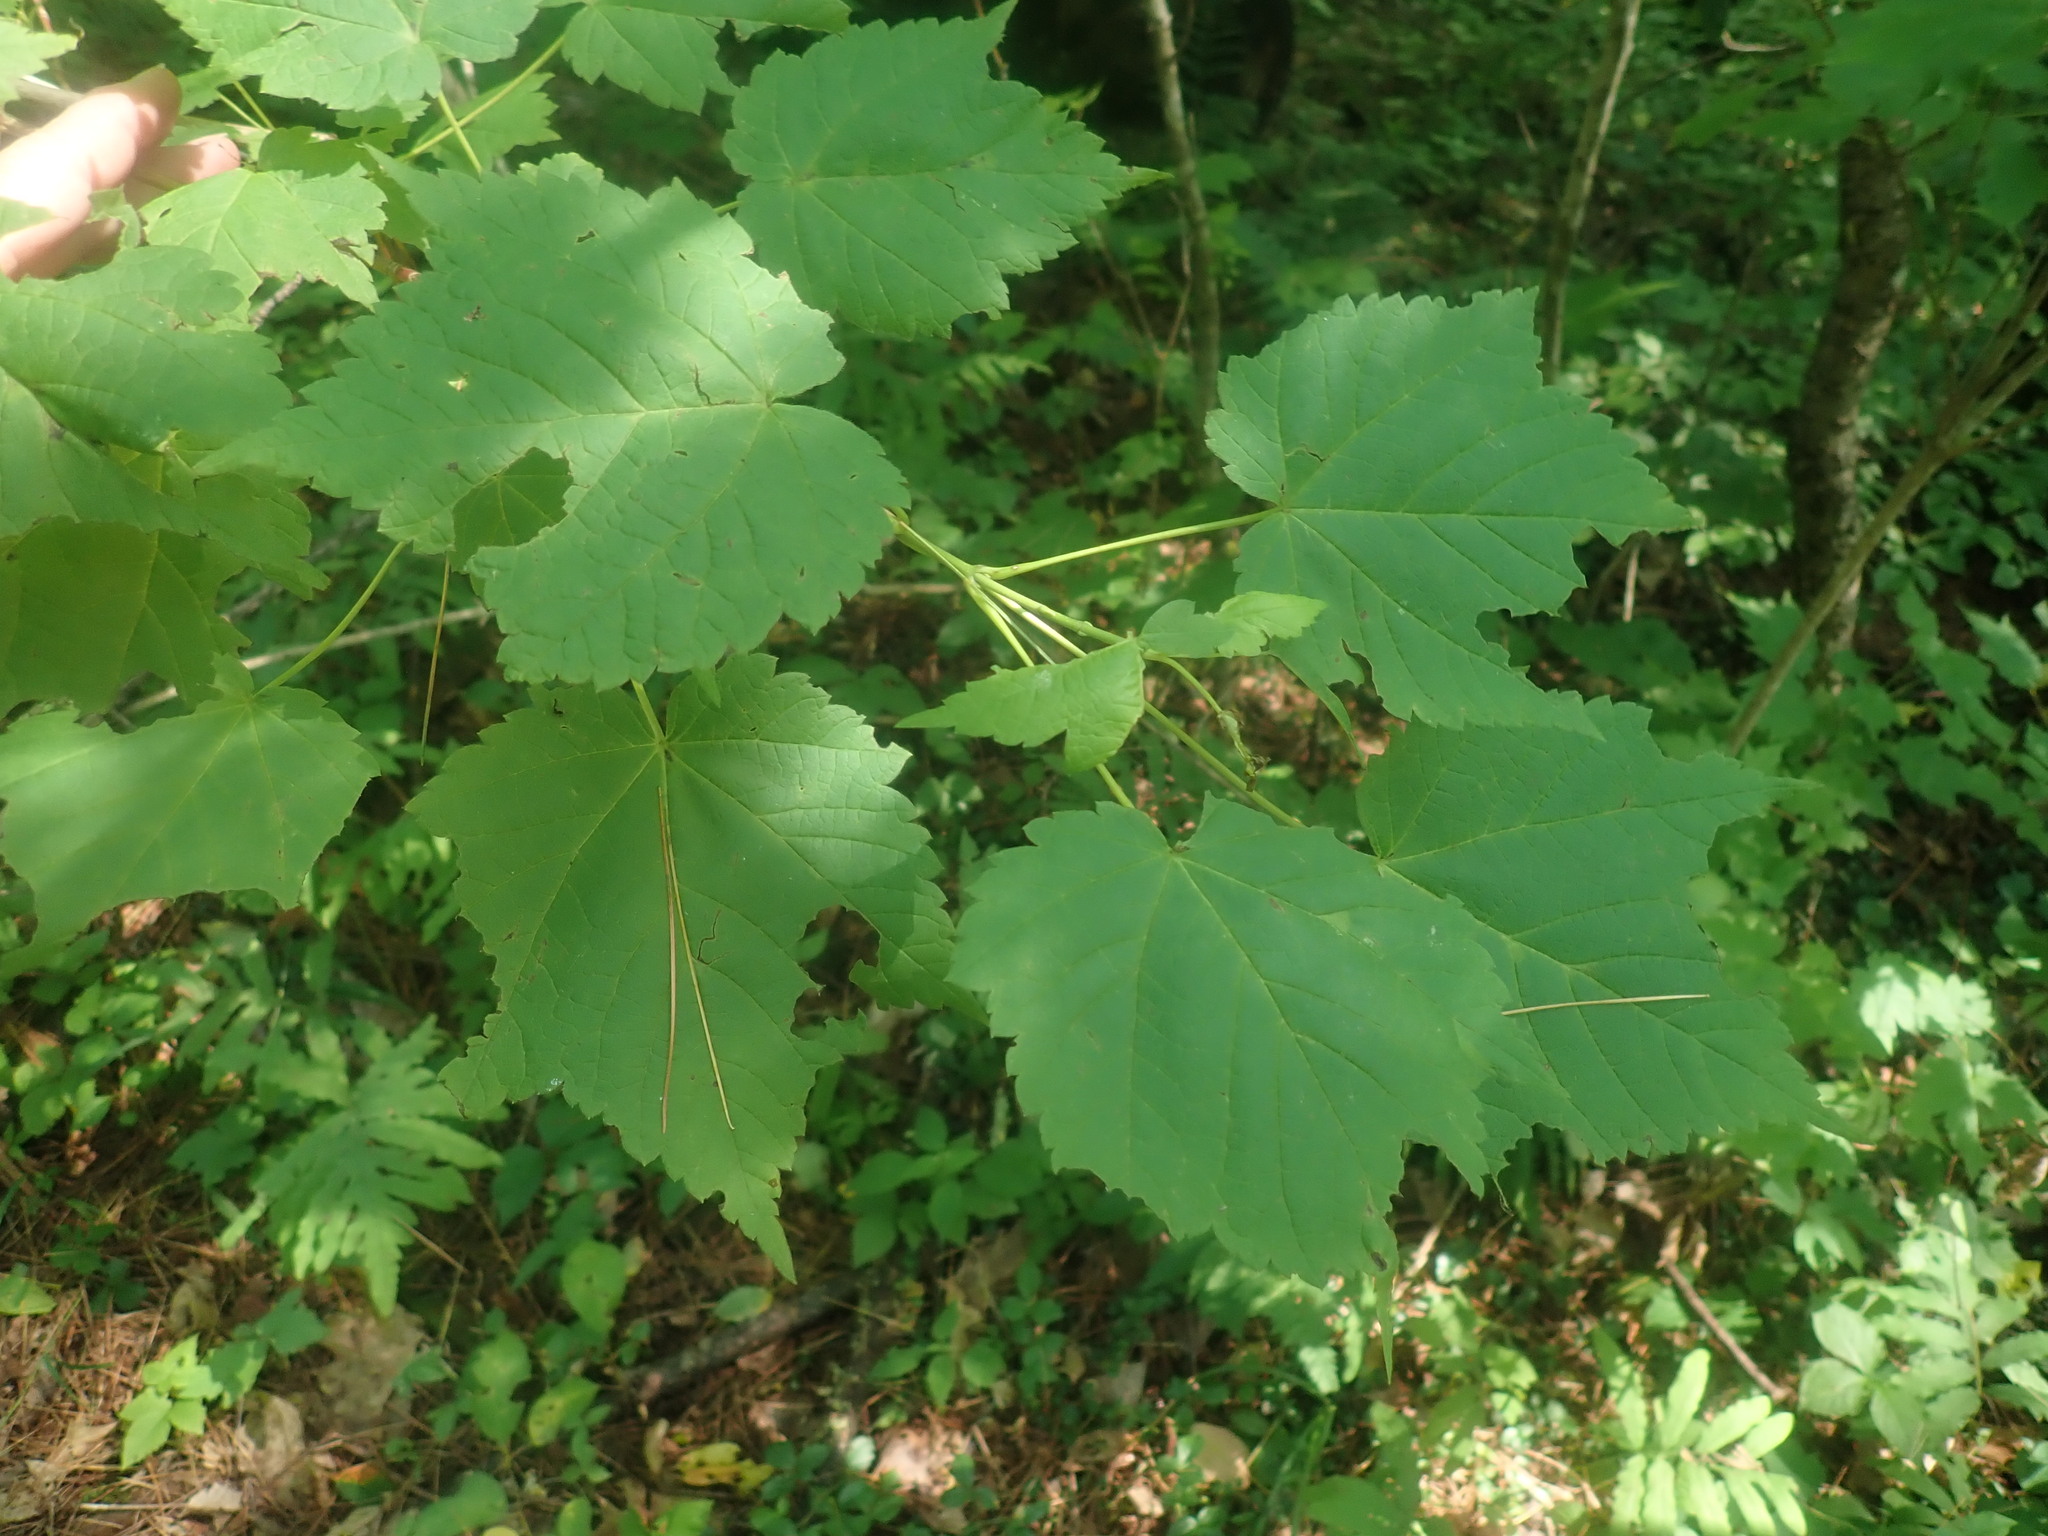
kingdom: Plantae
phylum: Tracheophyta
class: Magnoliopsida
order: Sapindales
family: Sapindaceae
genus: Acer
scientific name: Acer spicatum
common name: Mountain maple
